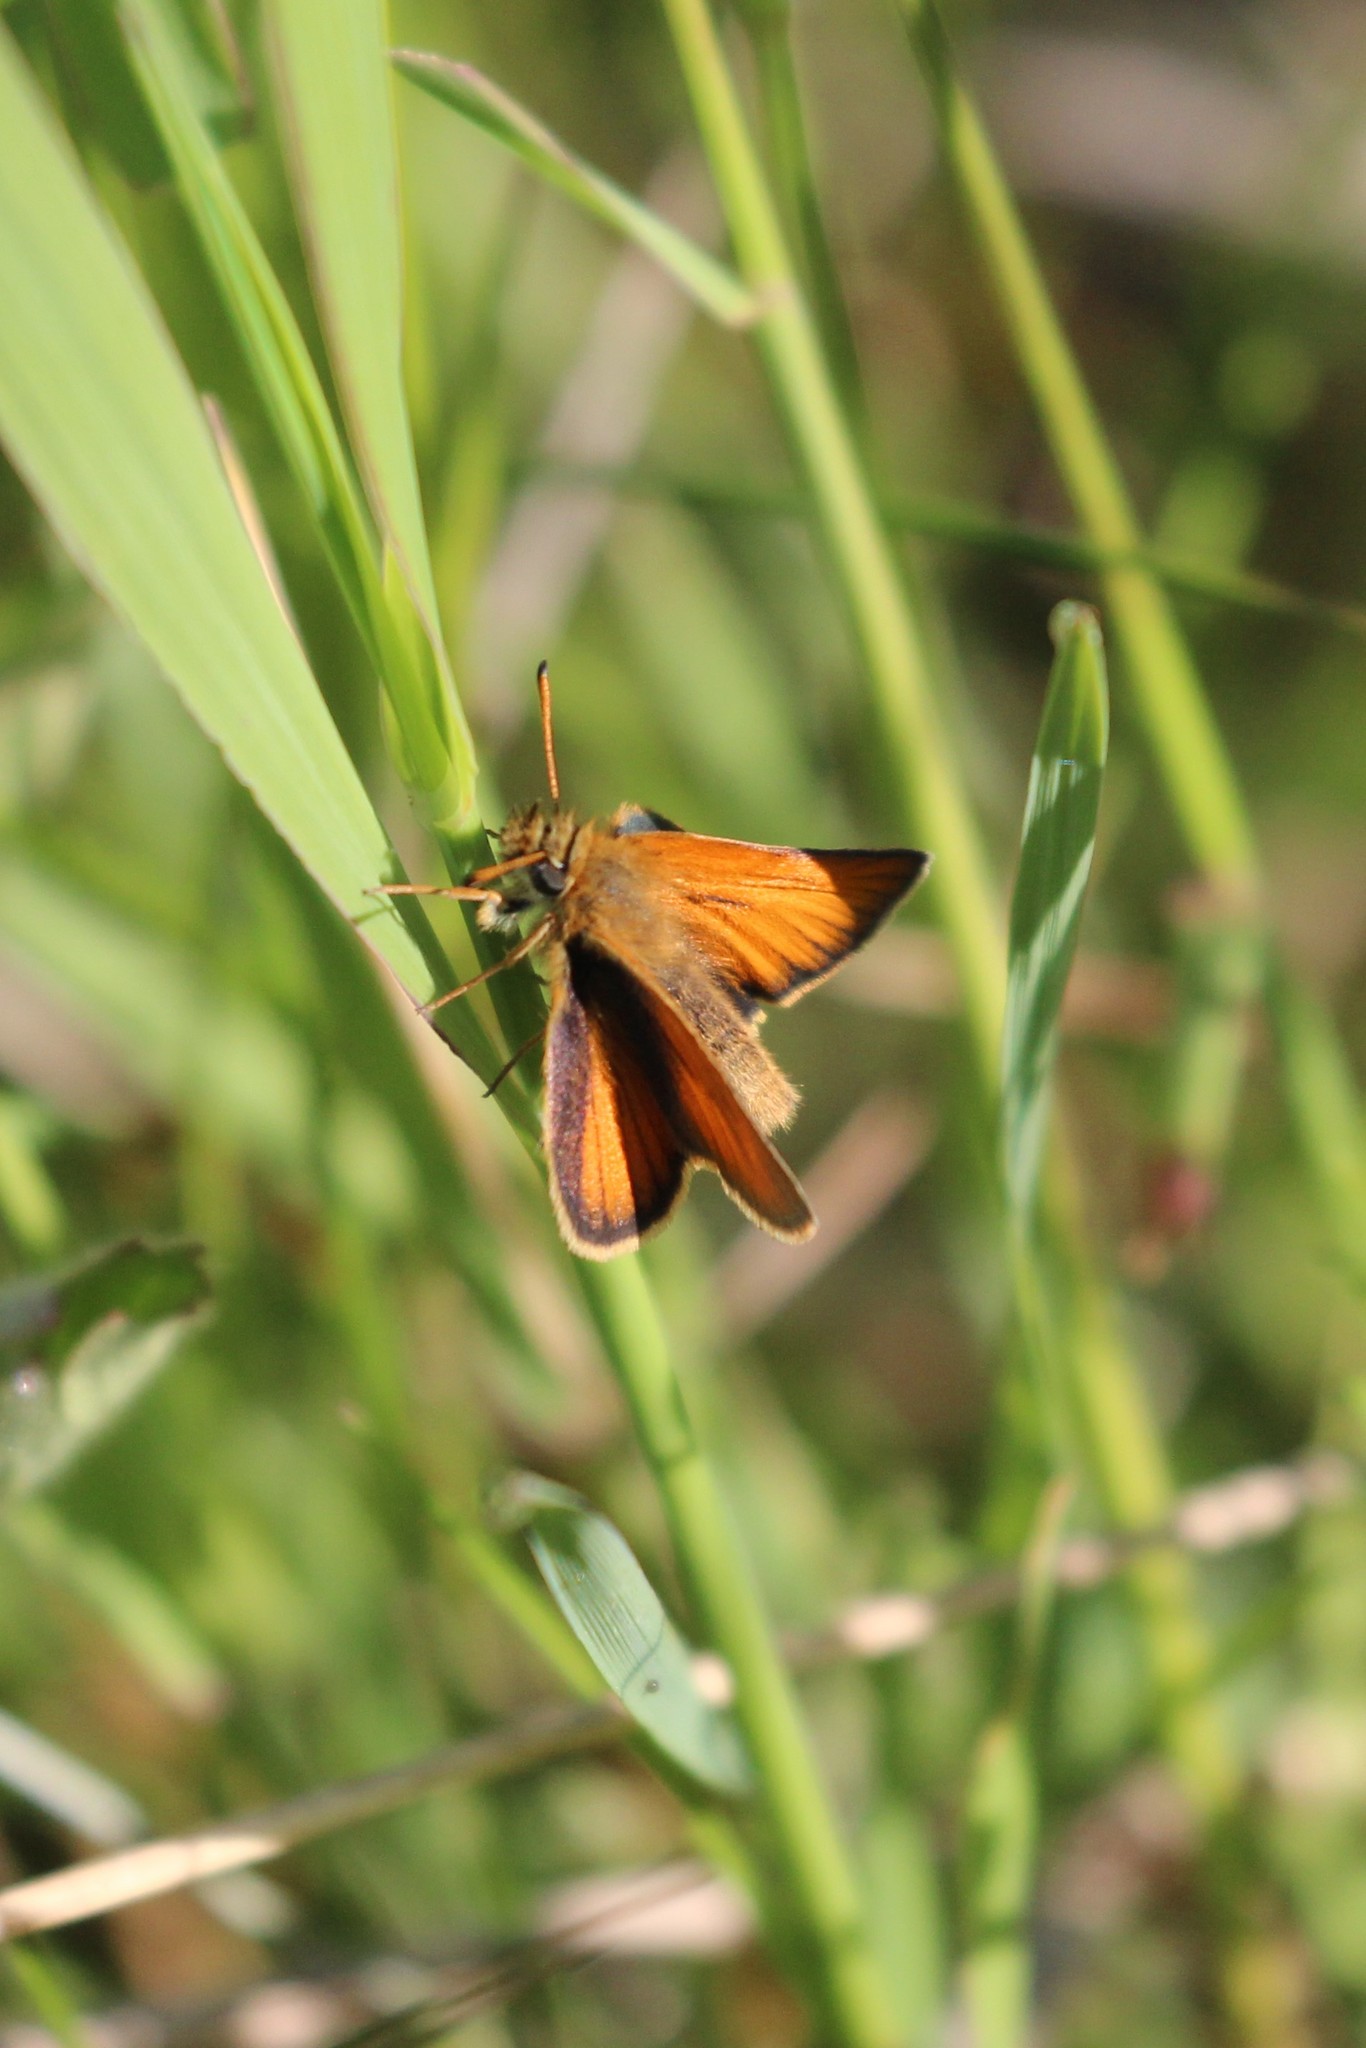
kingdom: Animalia
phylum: Arthropoda
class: Insecta
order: Lepidoptera
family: Hesperiidae
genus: Thymelicus
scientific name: Thymelicus lineola
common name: Essex skipper
